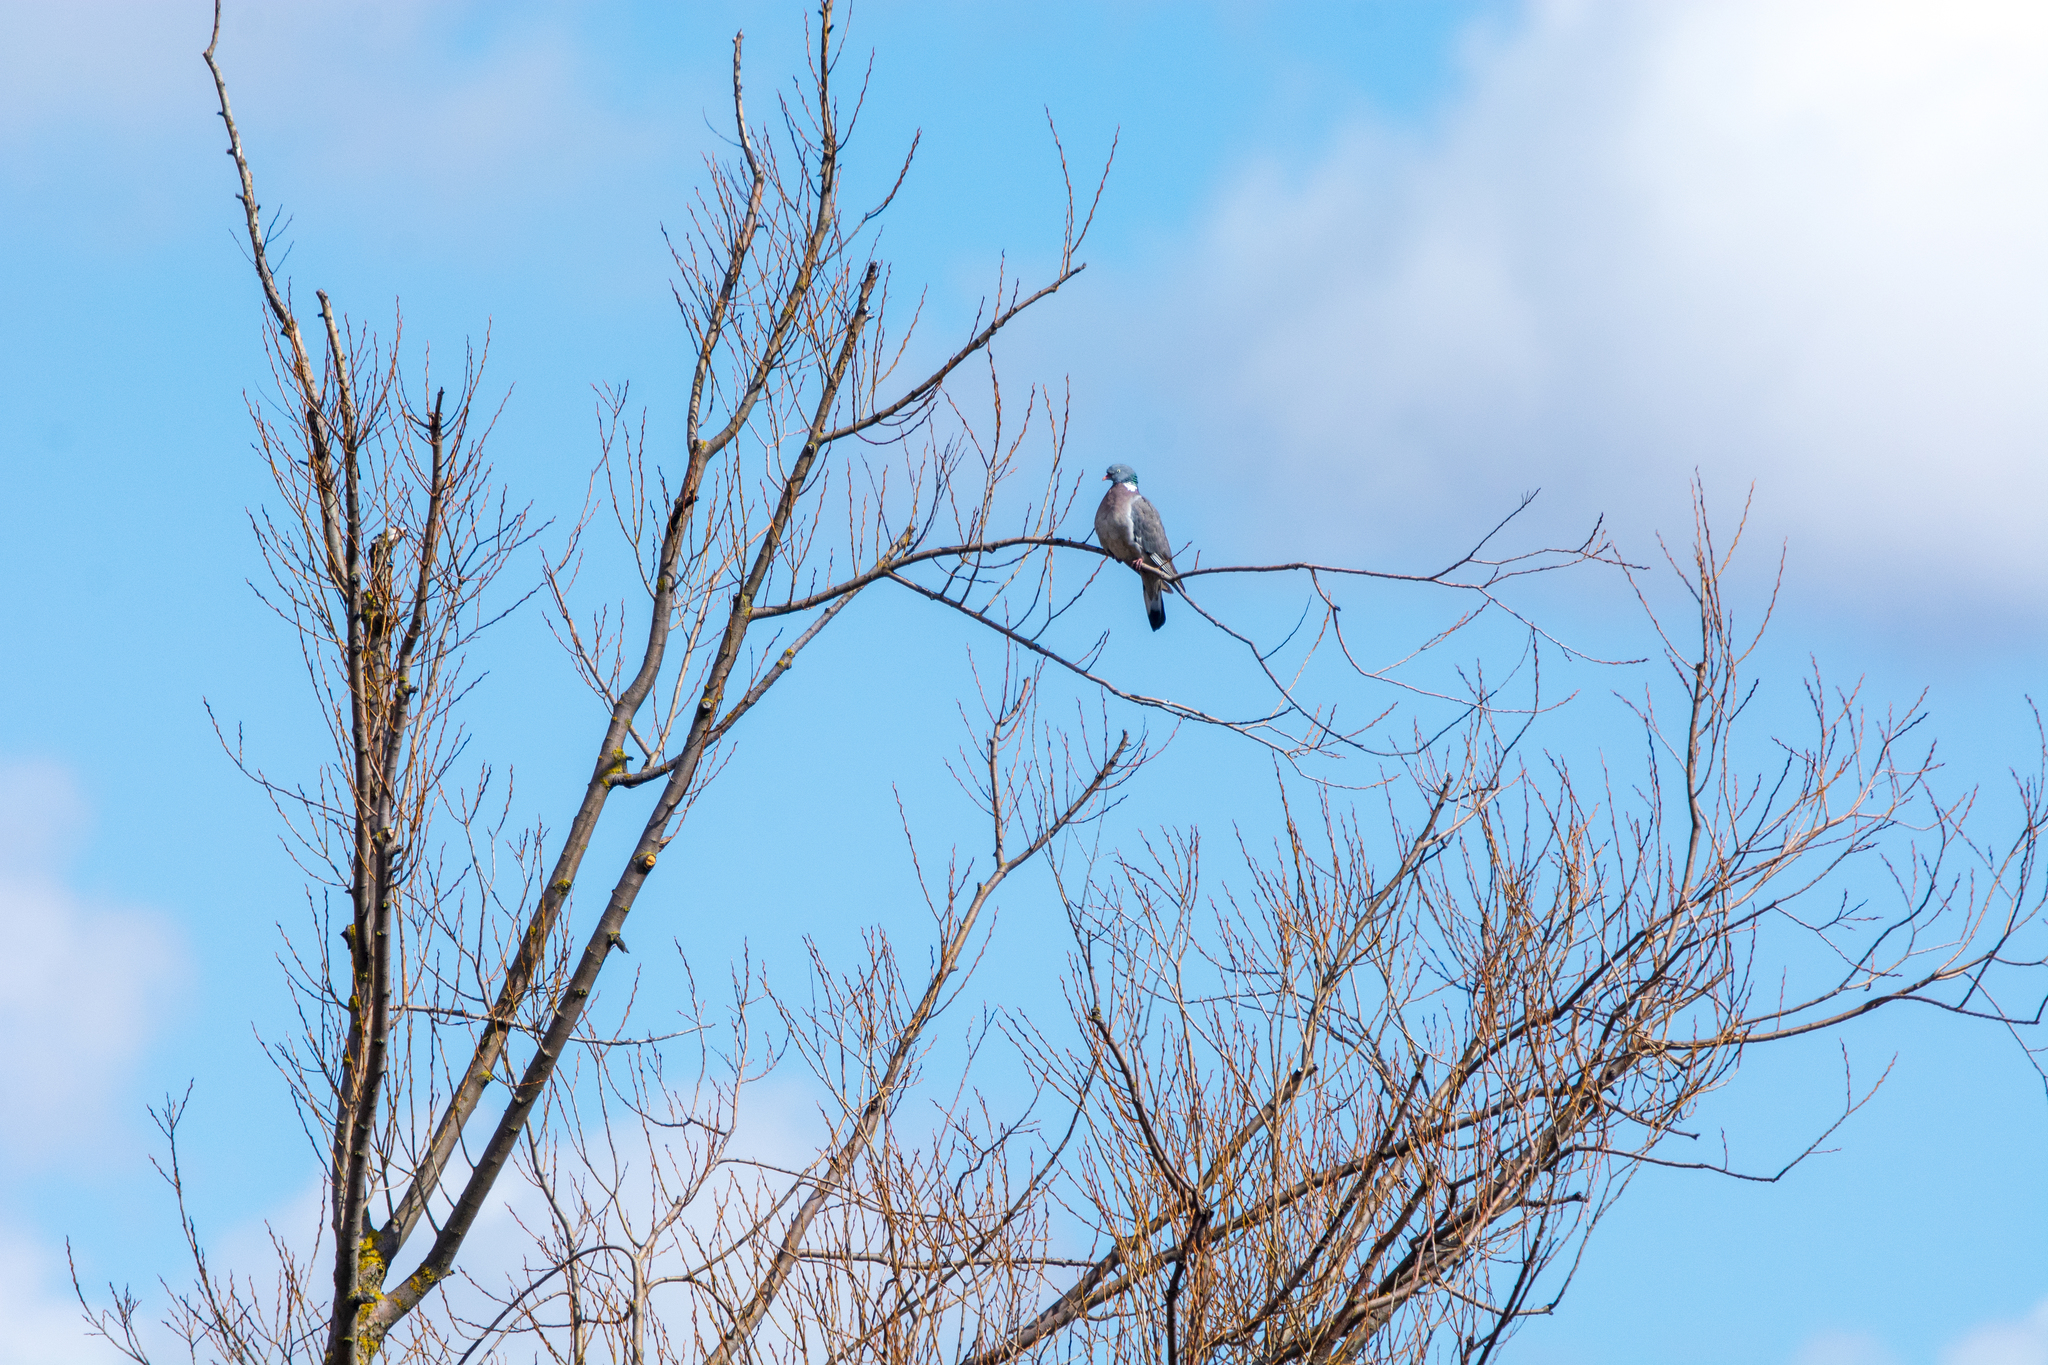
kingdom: Animalia
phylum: Chordata
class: Aves
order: Columbiformes
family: Columbidae
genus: Columba
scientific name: Columba palumbus
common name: Common wood pigeon
